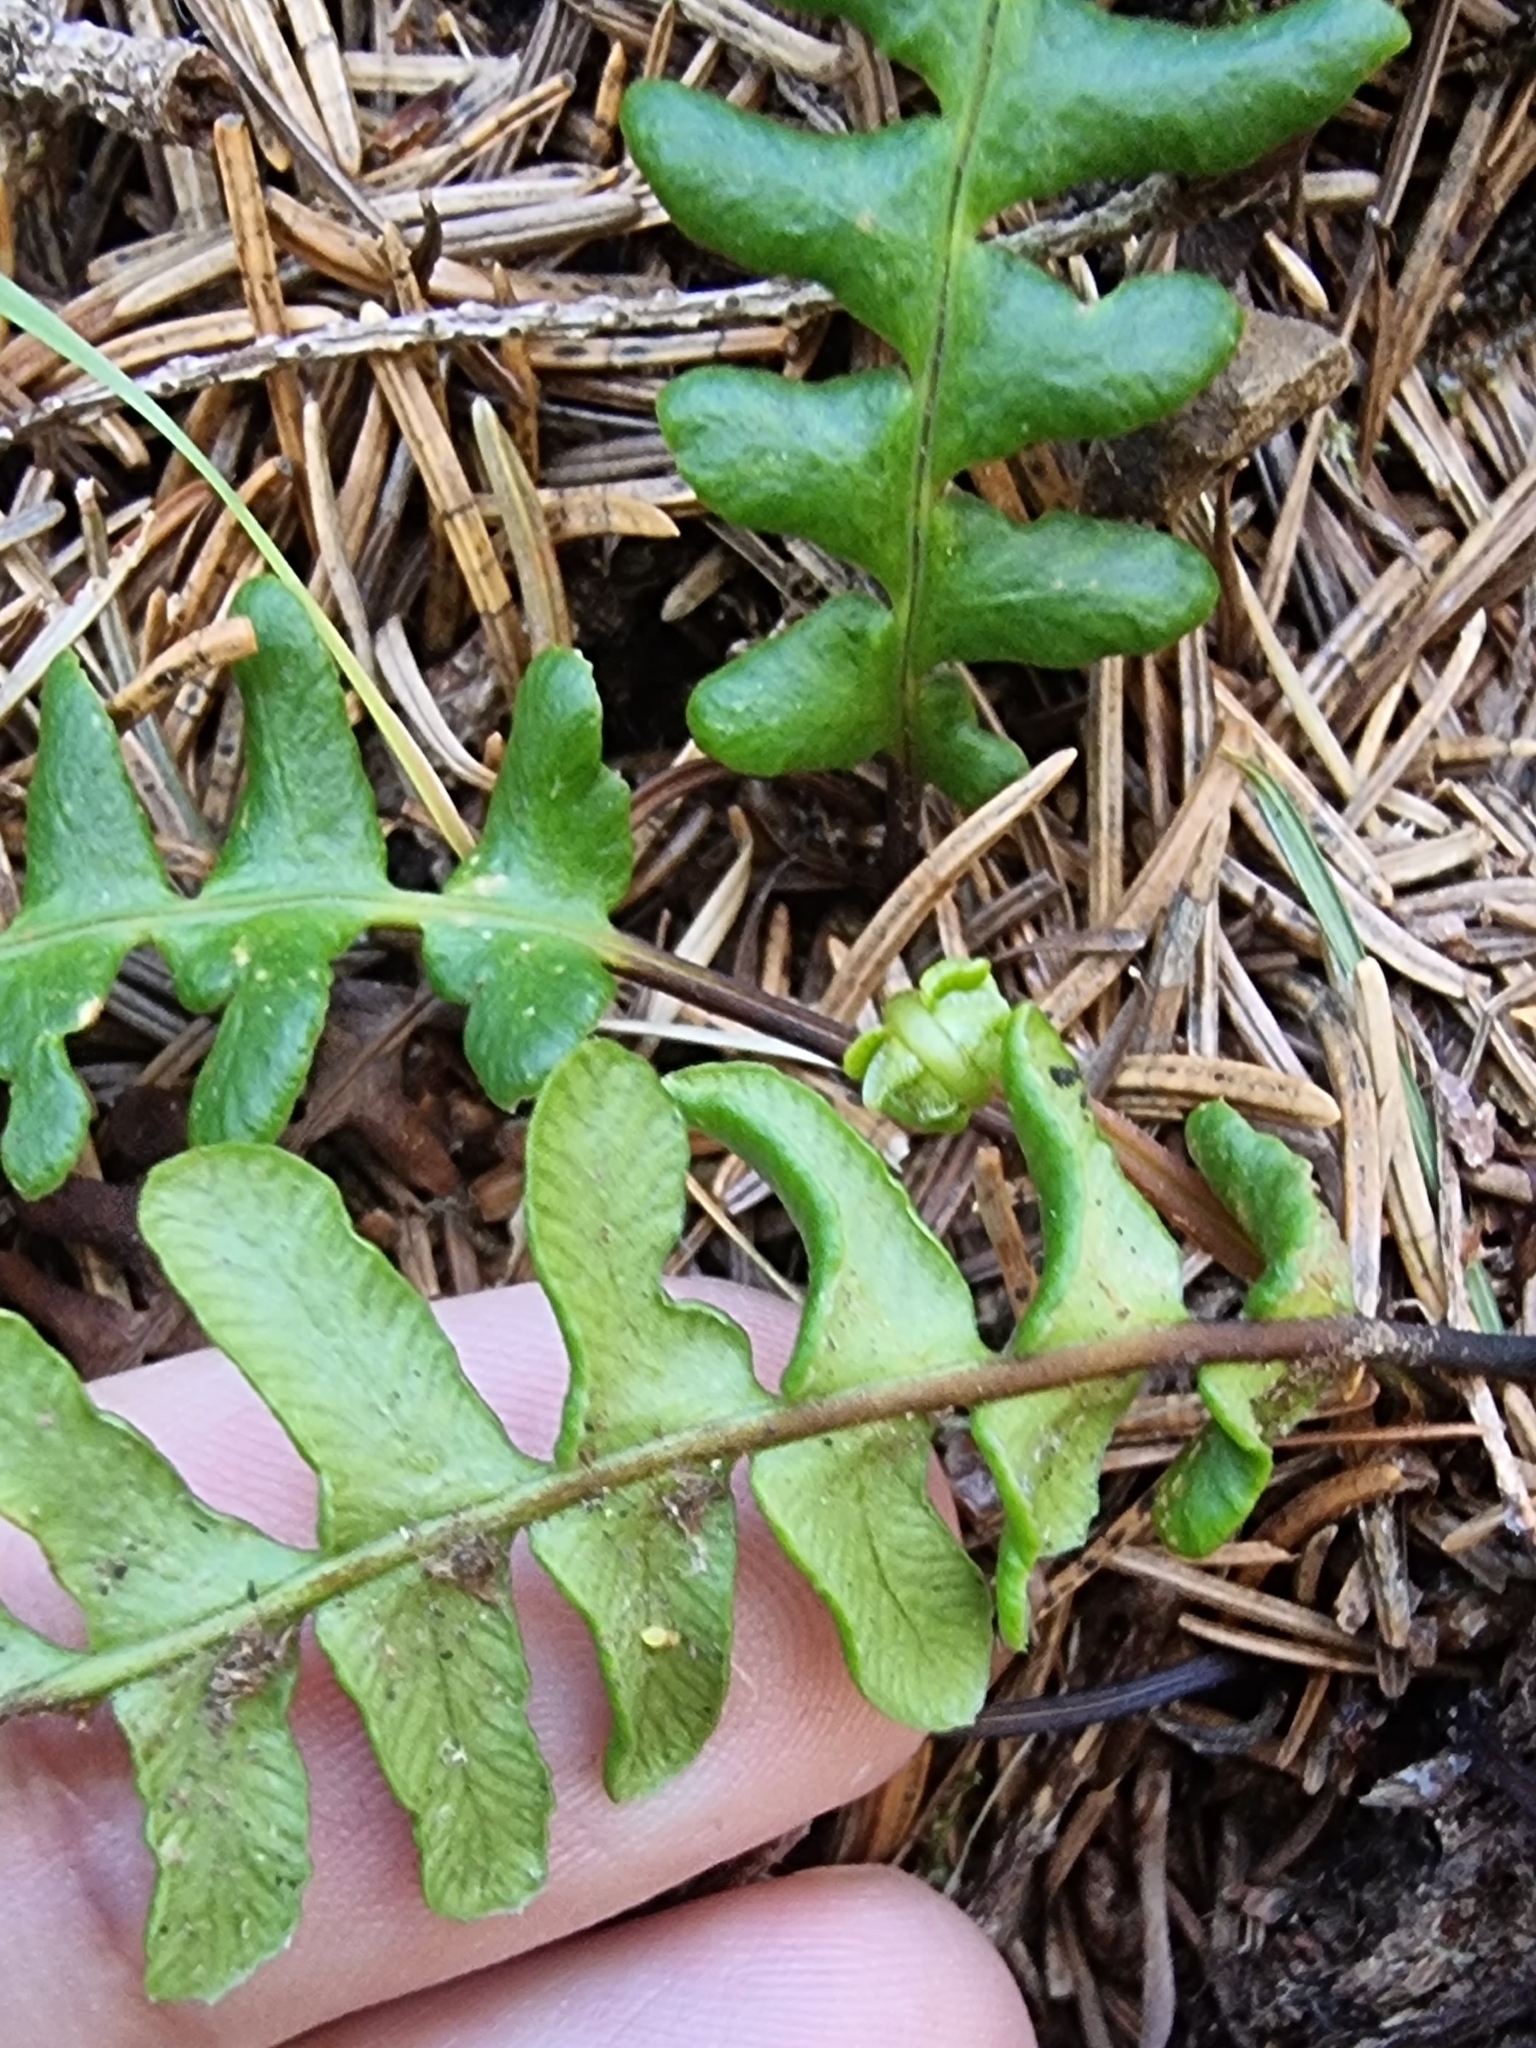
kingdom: Plantae
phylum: Tracheophyta
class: Polypodiopsida
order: Polypodiales
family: Blechnaceae
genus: Struthiopteris
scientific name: Struthiopteris spicant
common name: Deer fern
